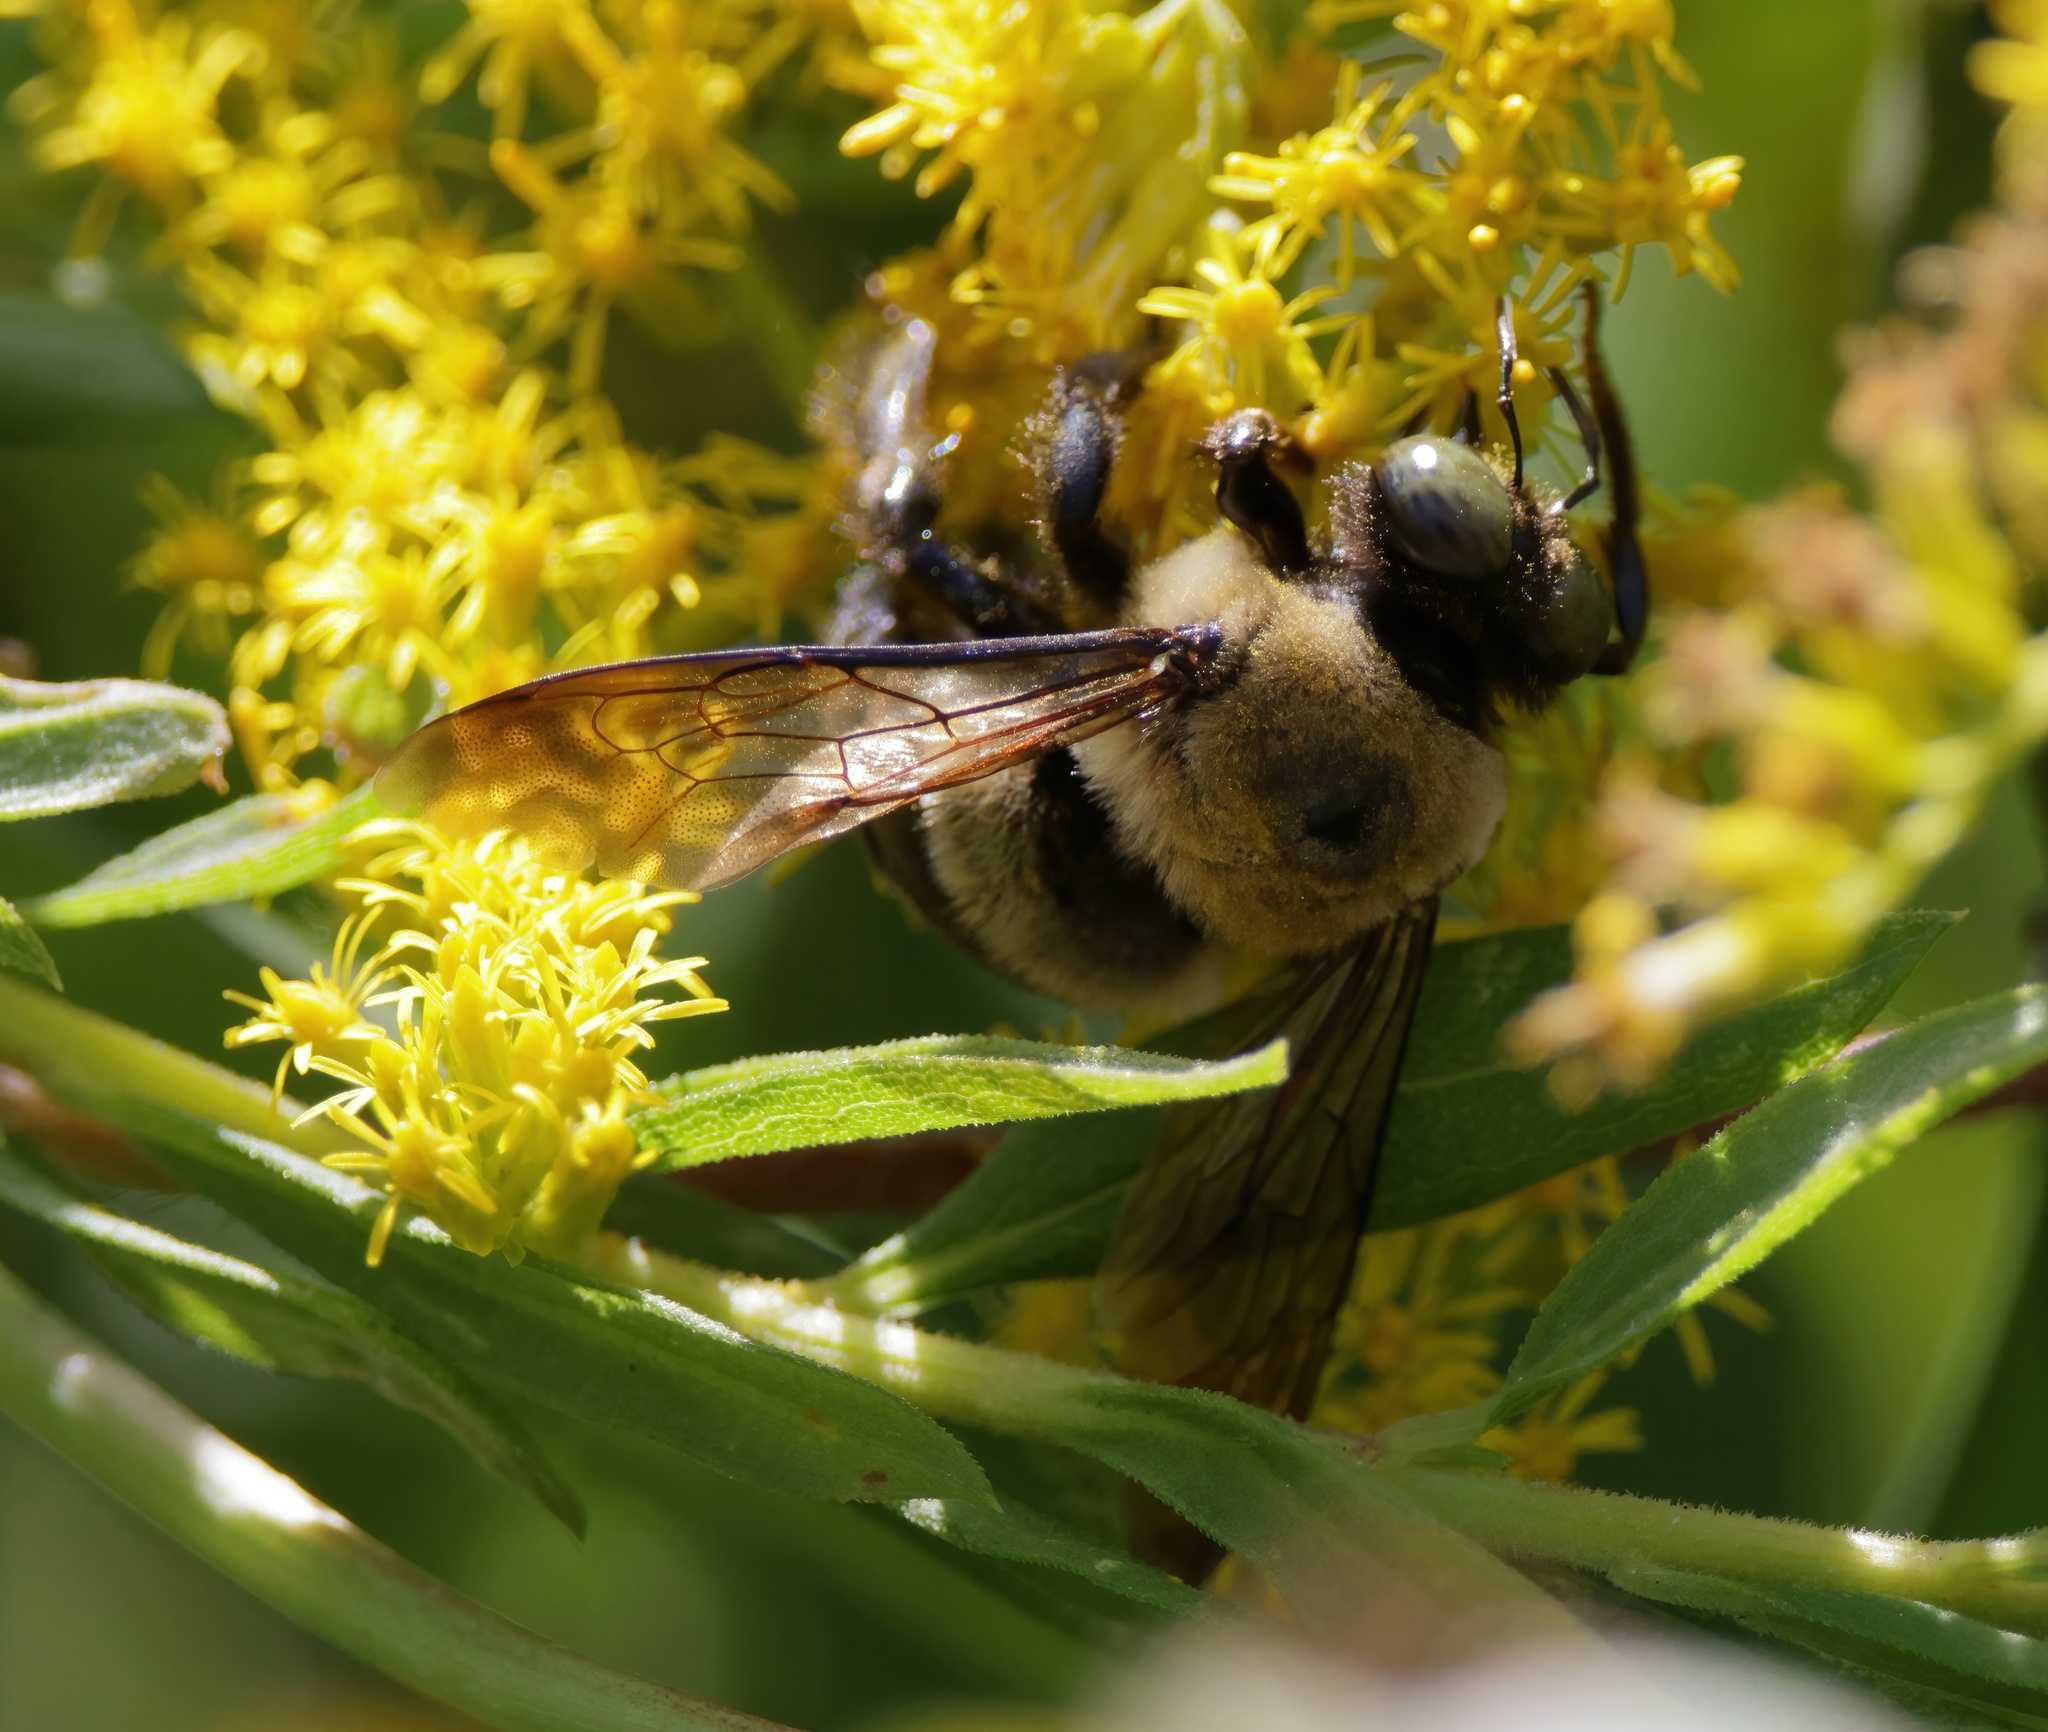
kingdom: Animalia
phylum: Arthropoda
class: Insecta
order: Hymenoptera
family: Apidae
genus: Xylocopa
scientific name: Xylocopa virginica
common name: Carpenter bee
